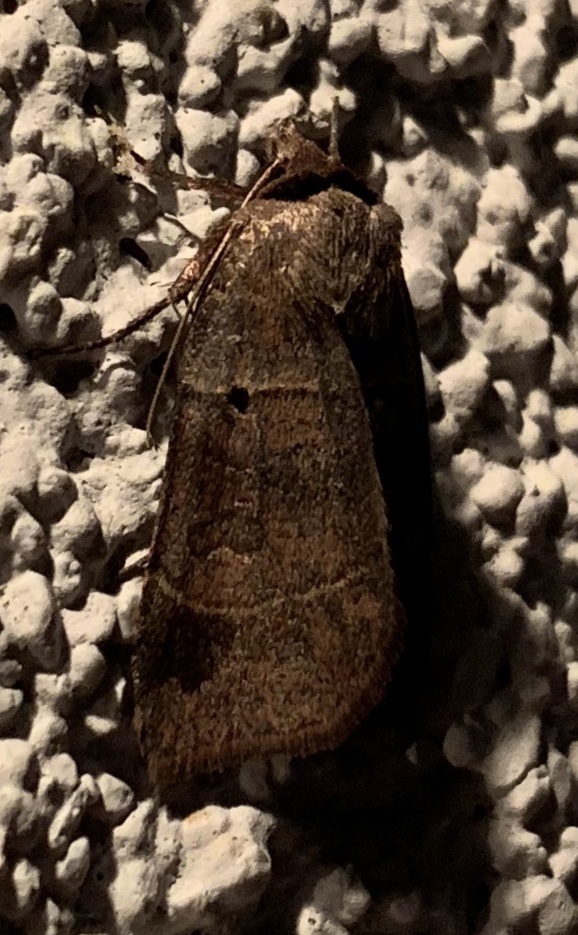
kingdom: Animalia
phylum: Arthropoda
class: Insecta
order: Lepidoptera
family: Noctuidae
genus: Agnorisma
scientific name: Agnorisma badinodis
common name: Pale-banded dart
